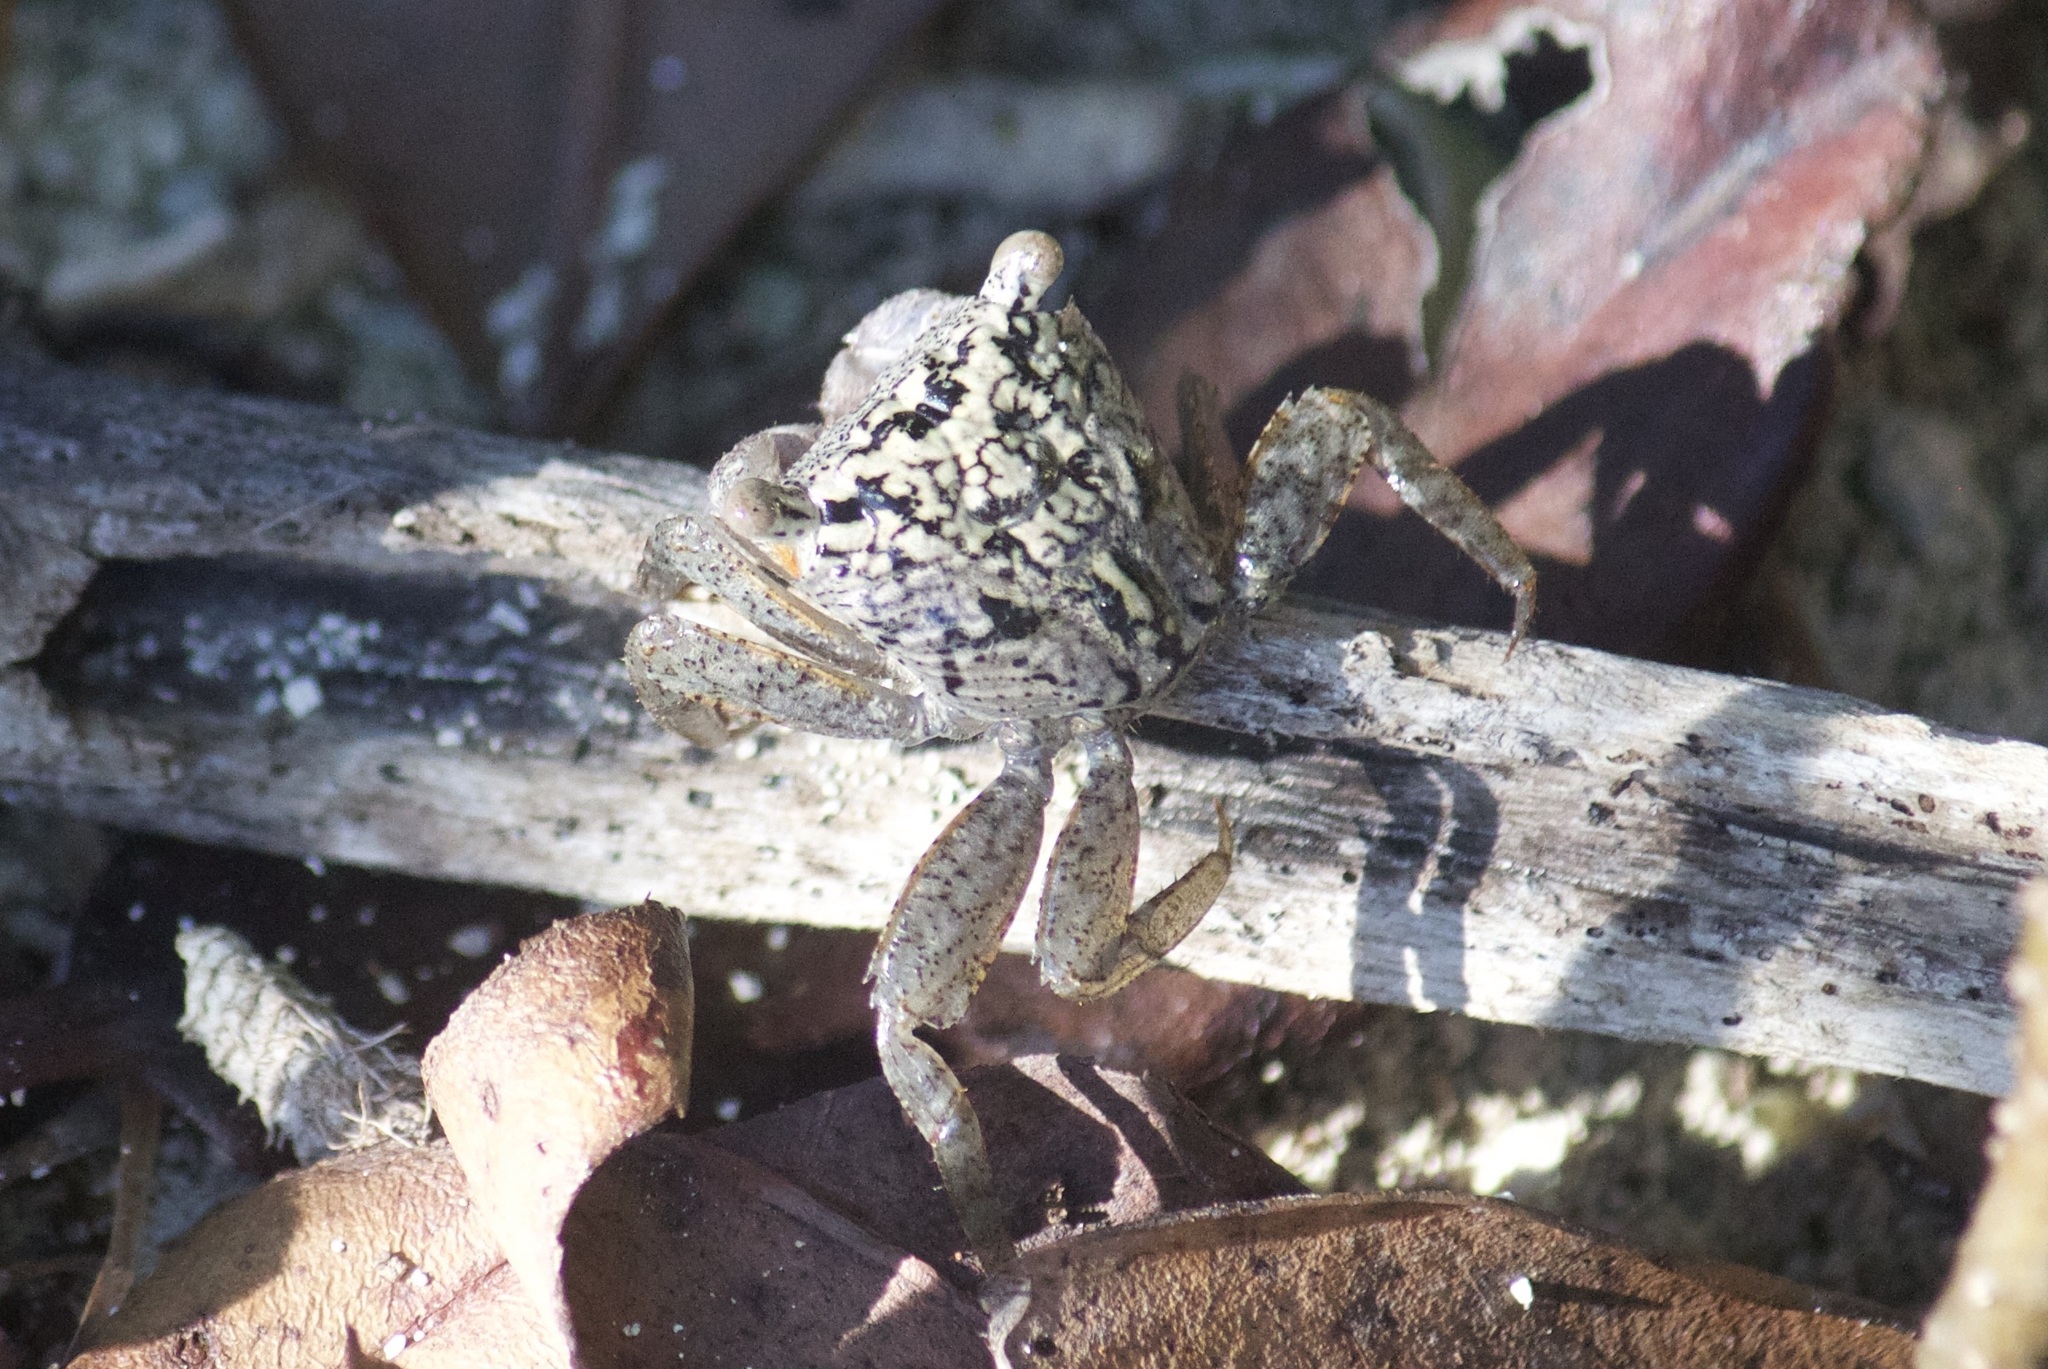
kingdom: Animalia
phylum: Arthropoda
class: Malacostraca
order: Decapoda
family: Sesarmidae
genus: Aratus
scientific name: Aratus pisonii
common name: Mangrove crab
